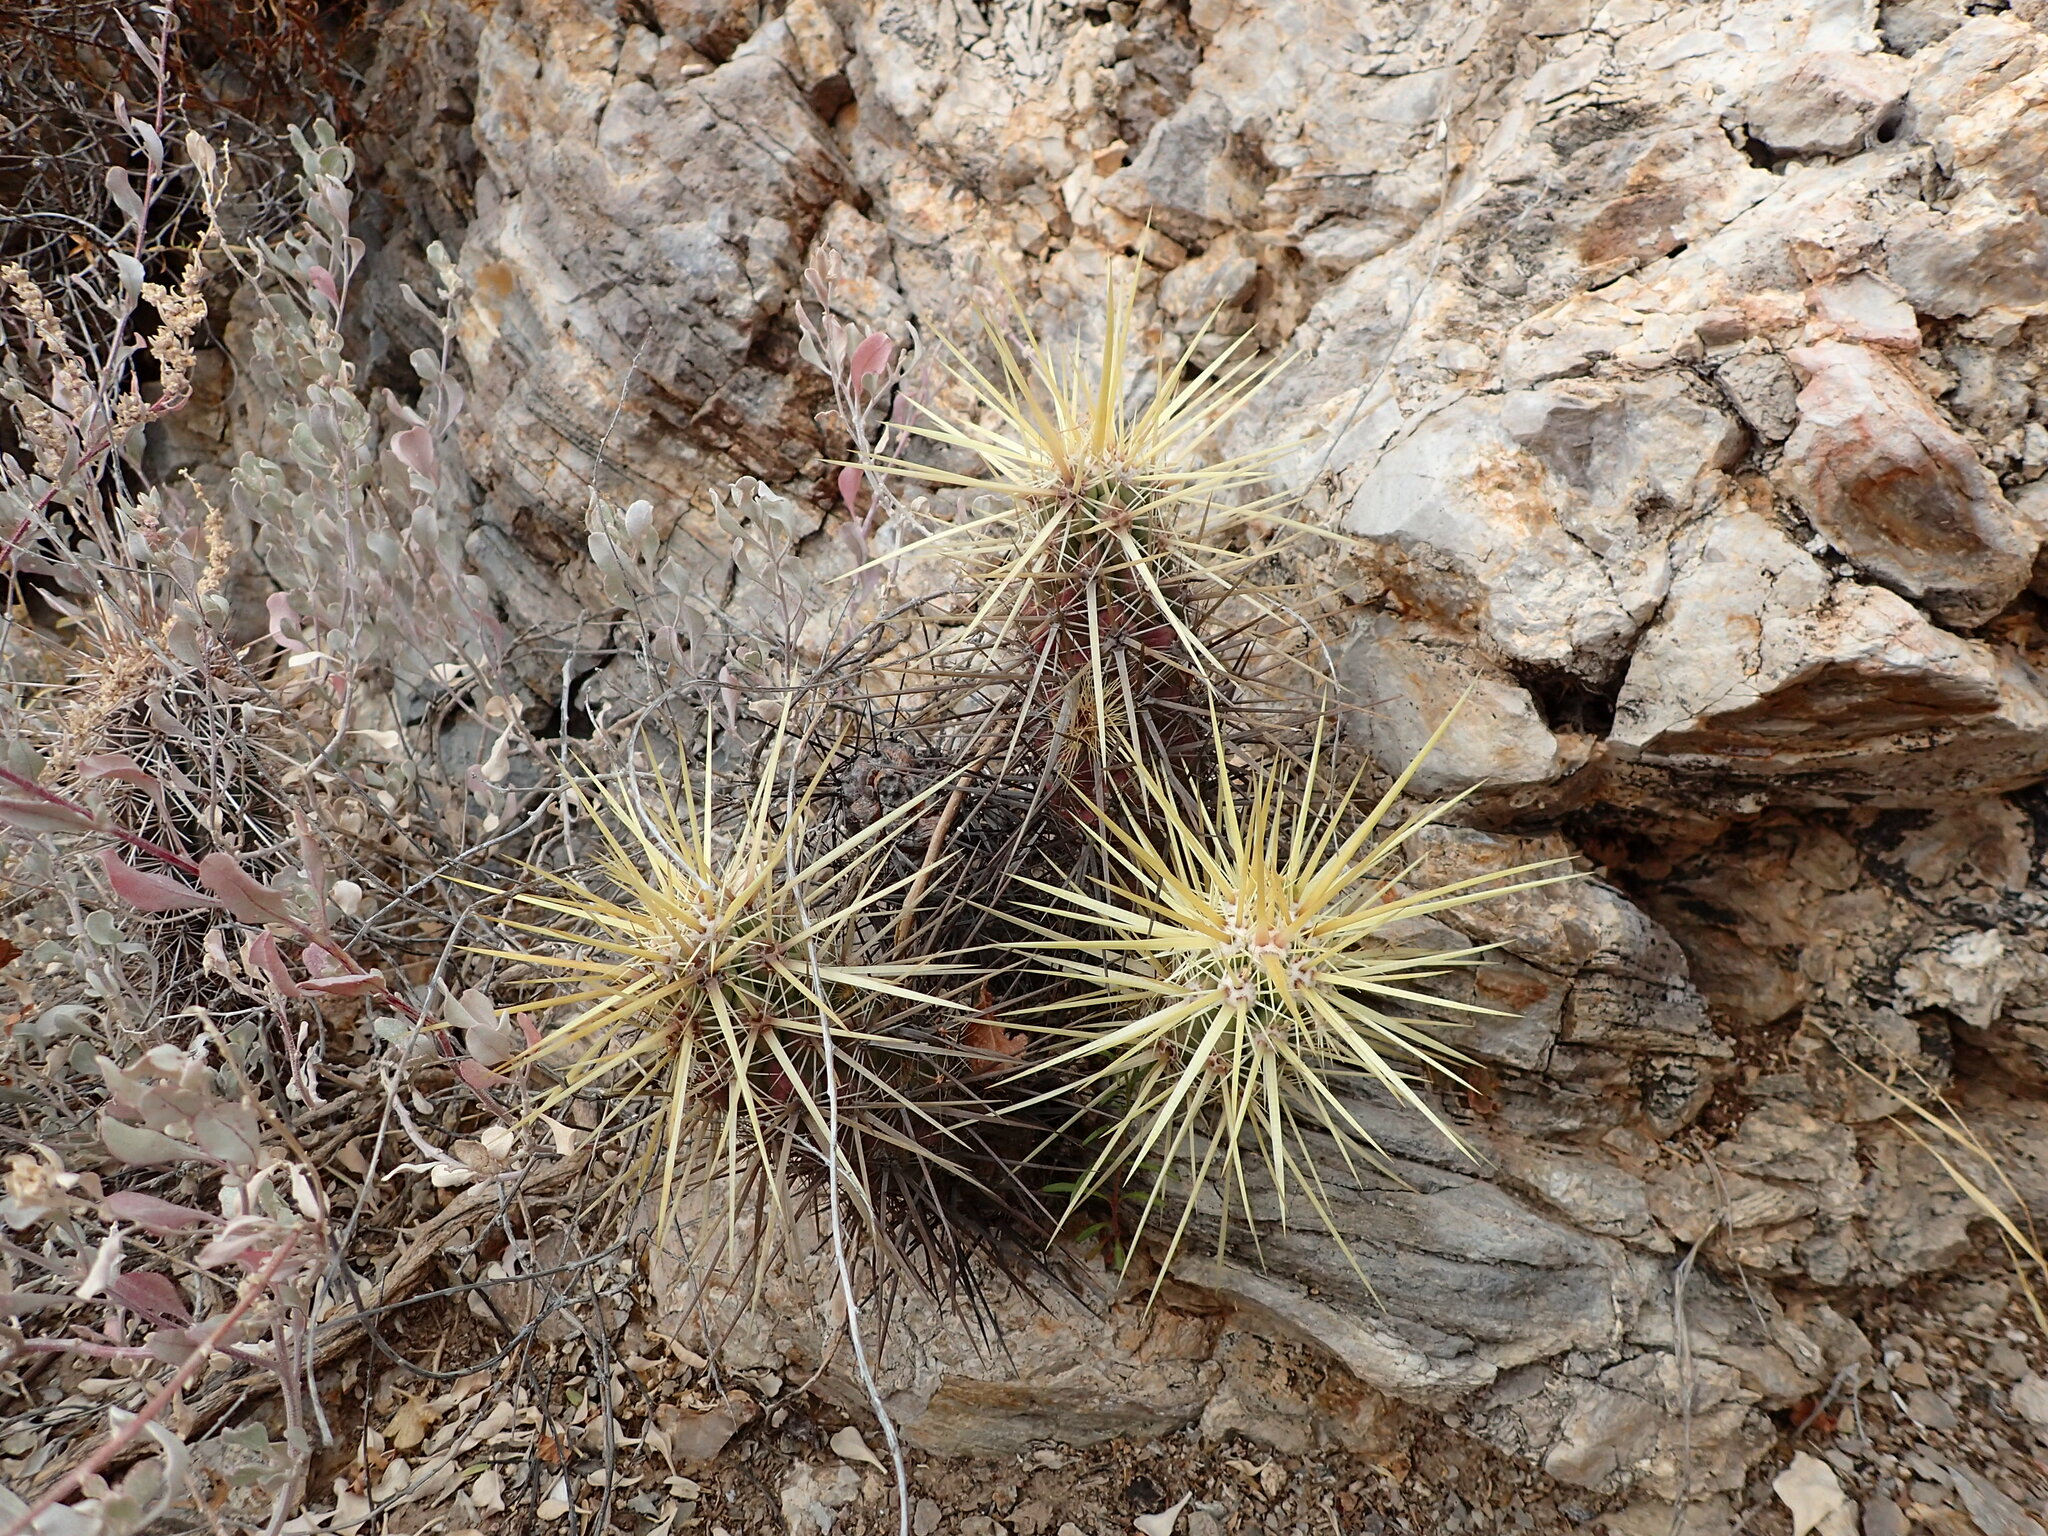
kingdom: Plantae
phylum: Tracheophyta
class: Magnoliopsida
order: Caryophyllales
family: Cactaceae
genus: Echinocereus
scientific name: Echinocereus brandegeei
